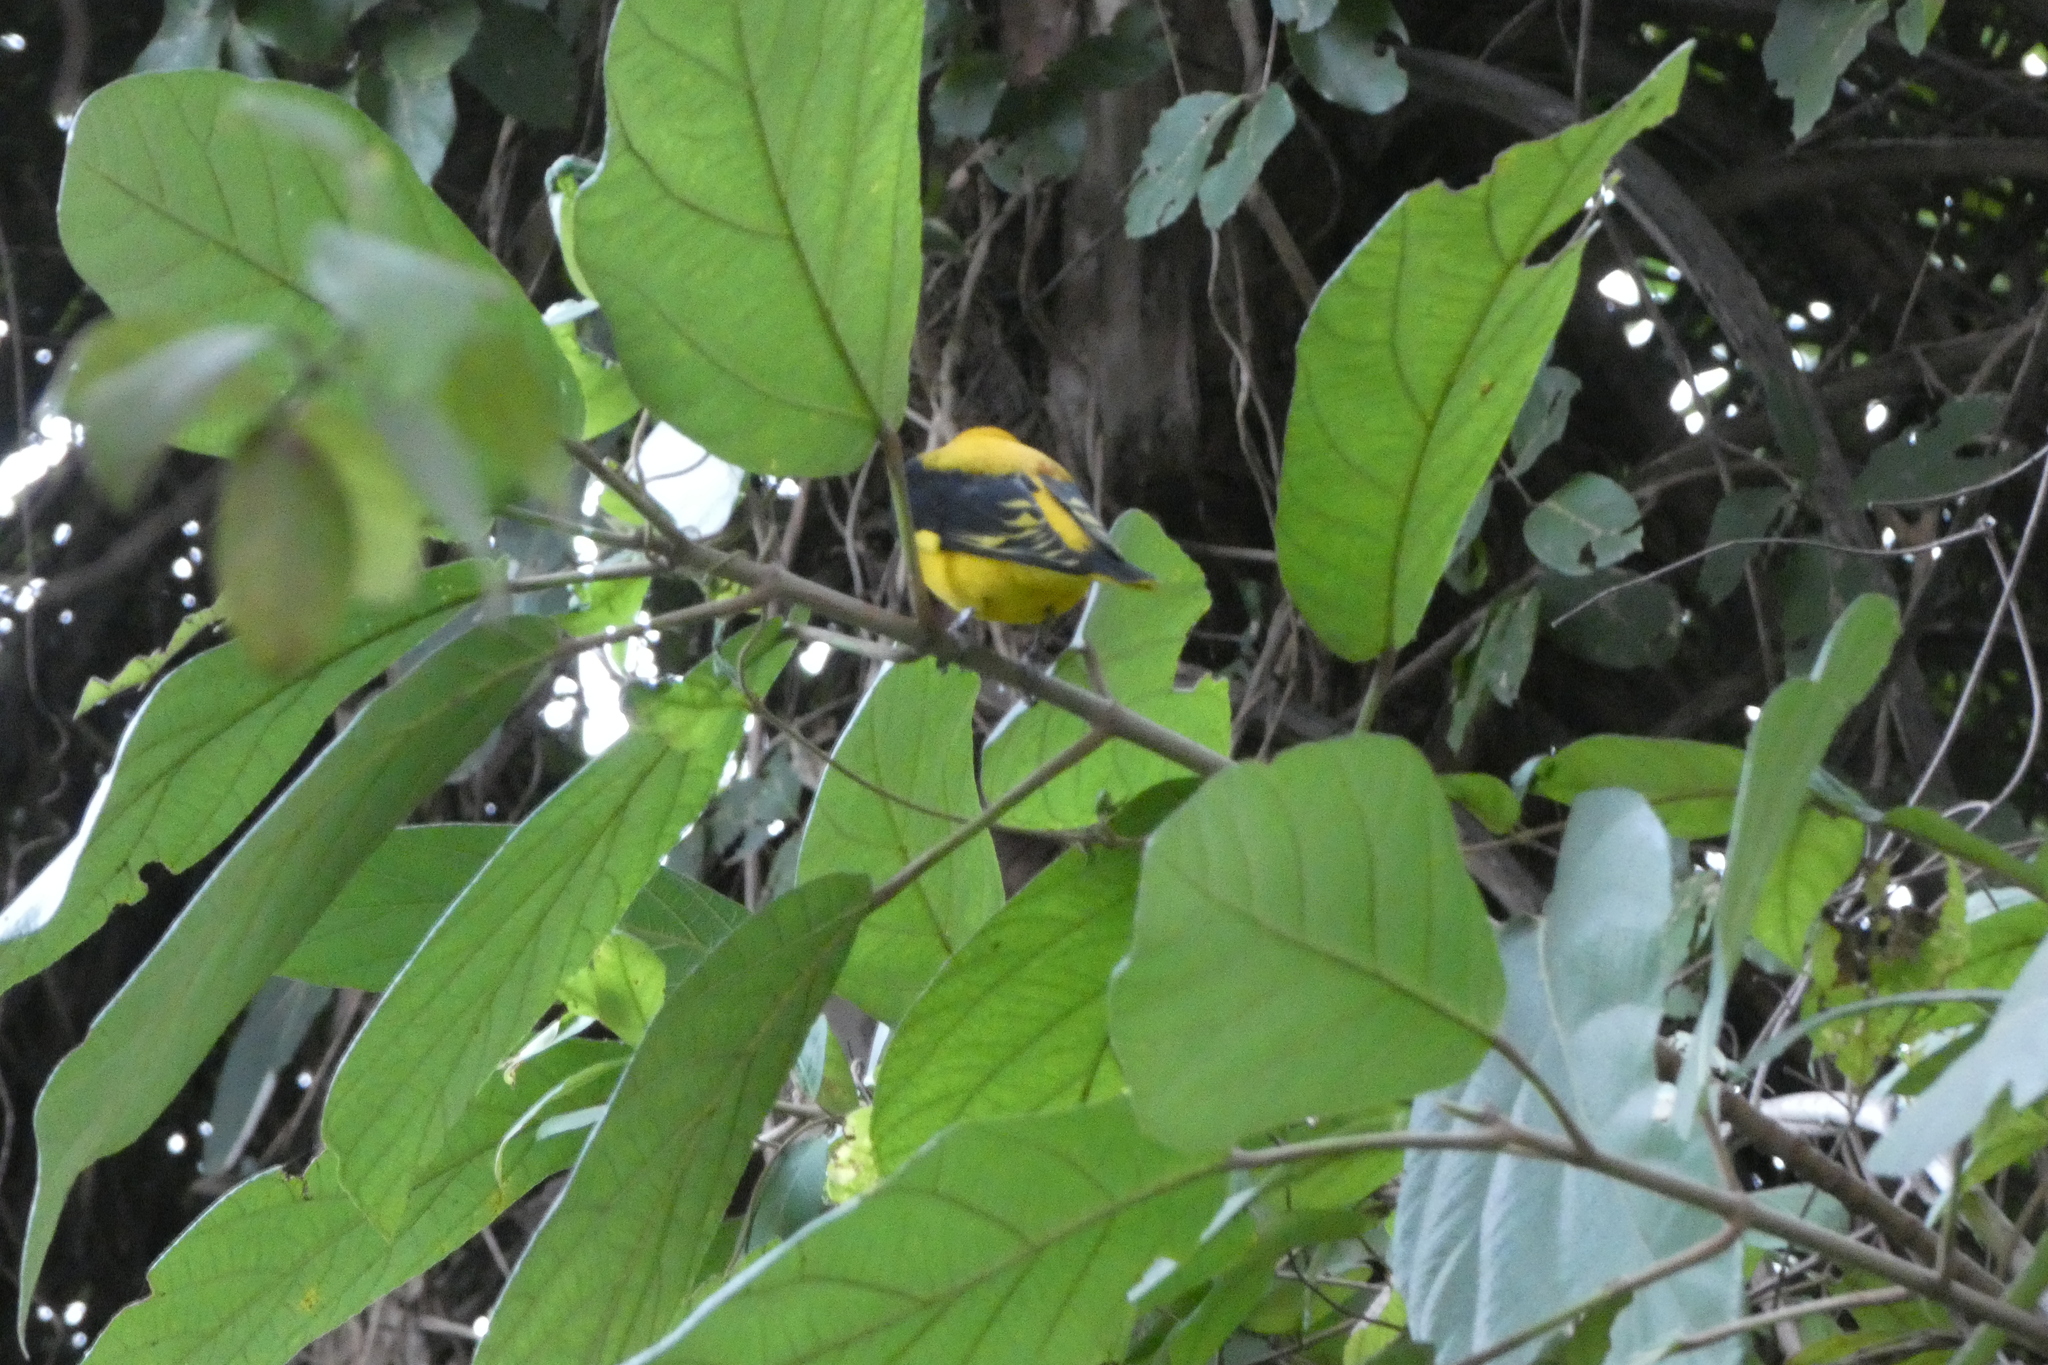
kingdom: Animalia
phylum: Chordata
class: Aves
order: Passeriformes
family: Oriolidae
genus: Oriolus
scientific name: Oriolus kundoo
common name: Indian golden oriole
